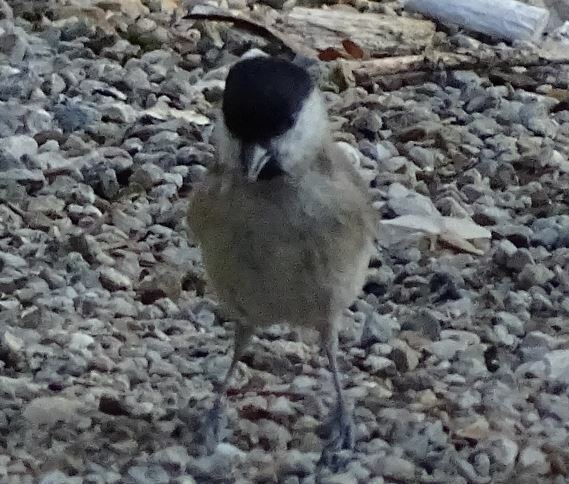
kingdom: Animalia
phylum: Chordata
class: Aves
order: Passeriformes
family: Paridae
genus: Poecile
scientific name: Poecile palustris
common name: Marsh tit
